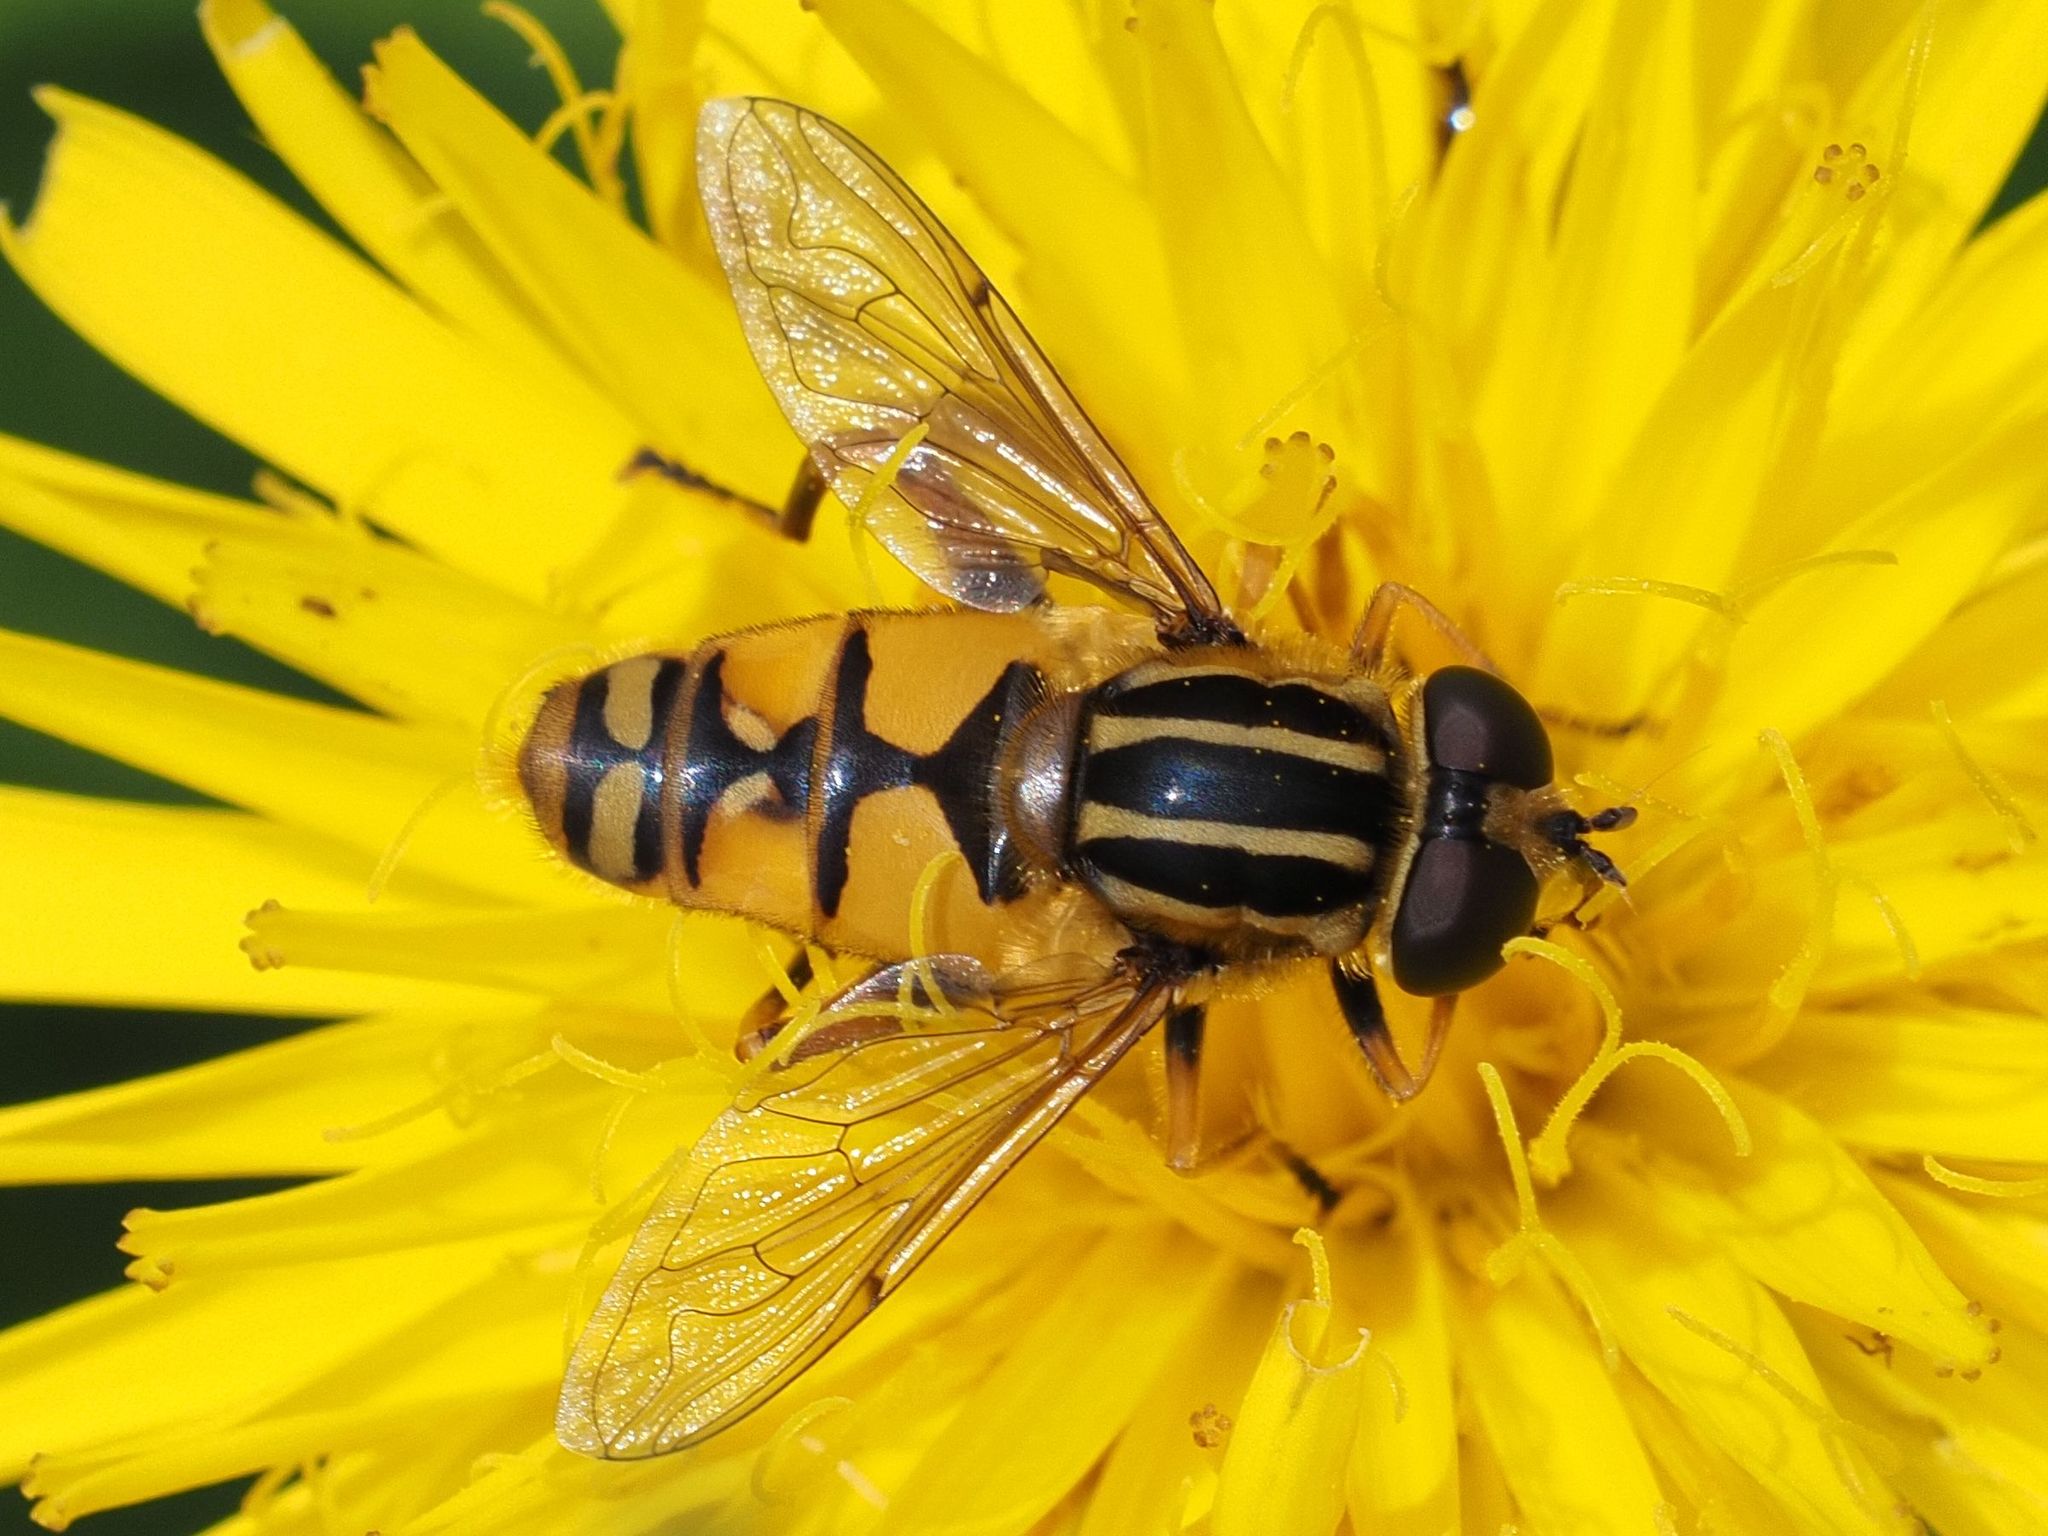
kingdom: Animalia
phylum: Arthropoda
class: Insecta
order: Diptera
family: Syrphidae
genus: Helophilus
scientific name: Helophilus pendulus
